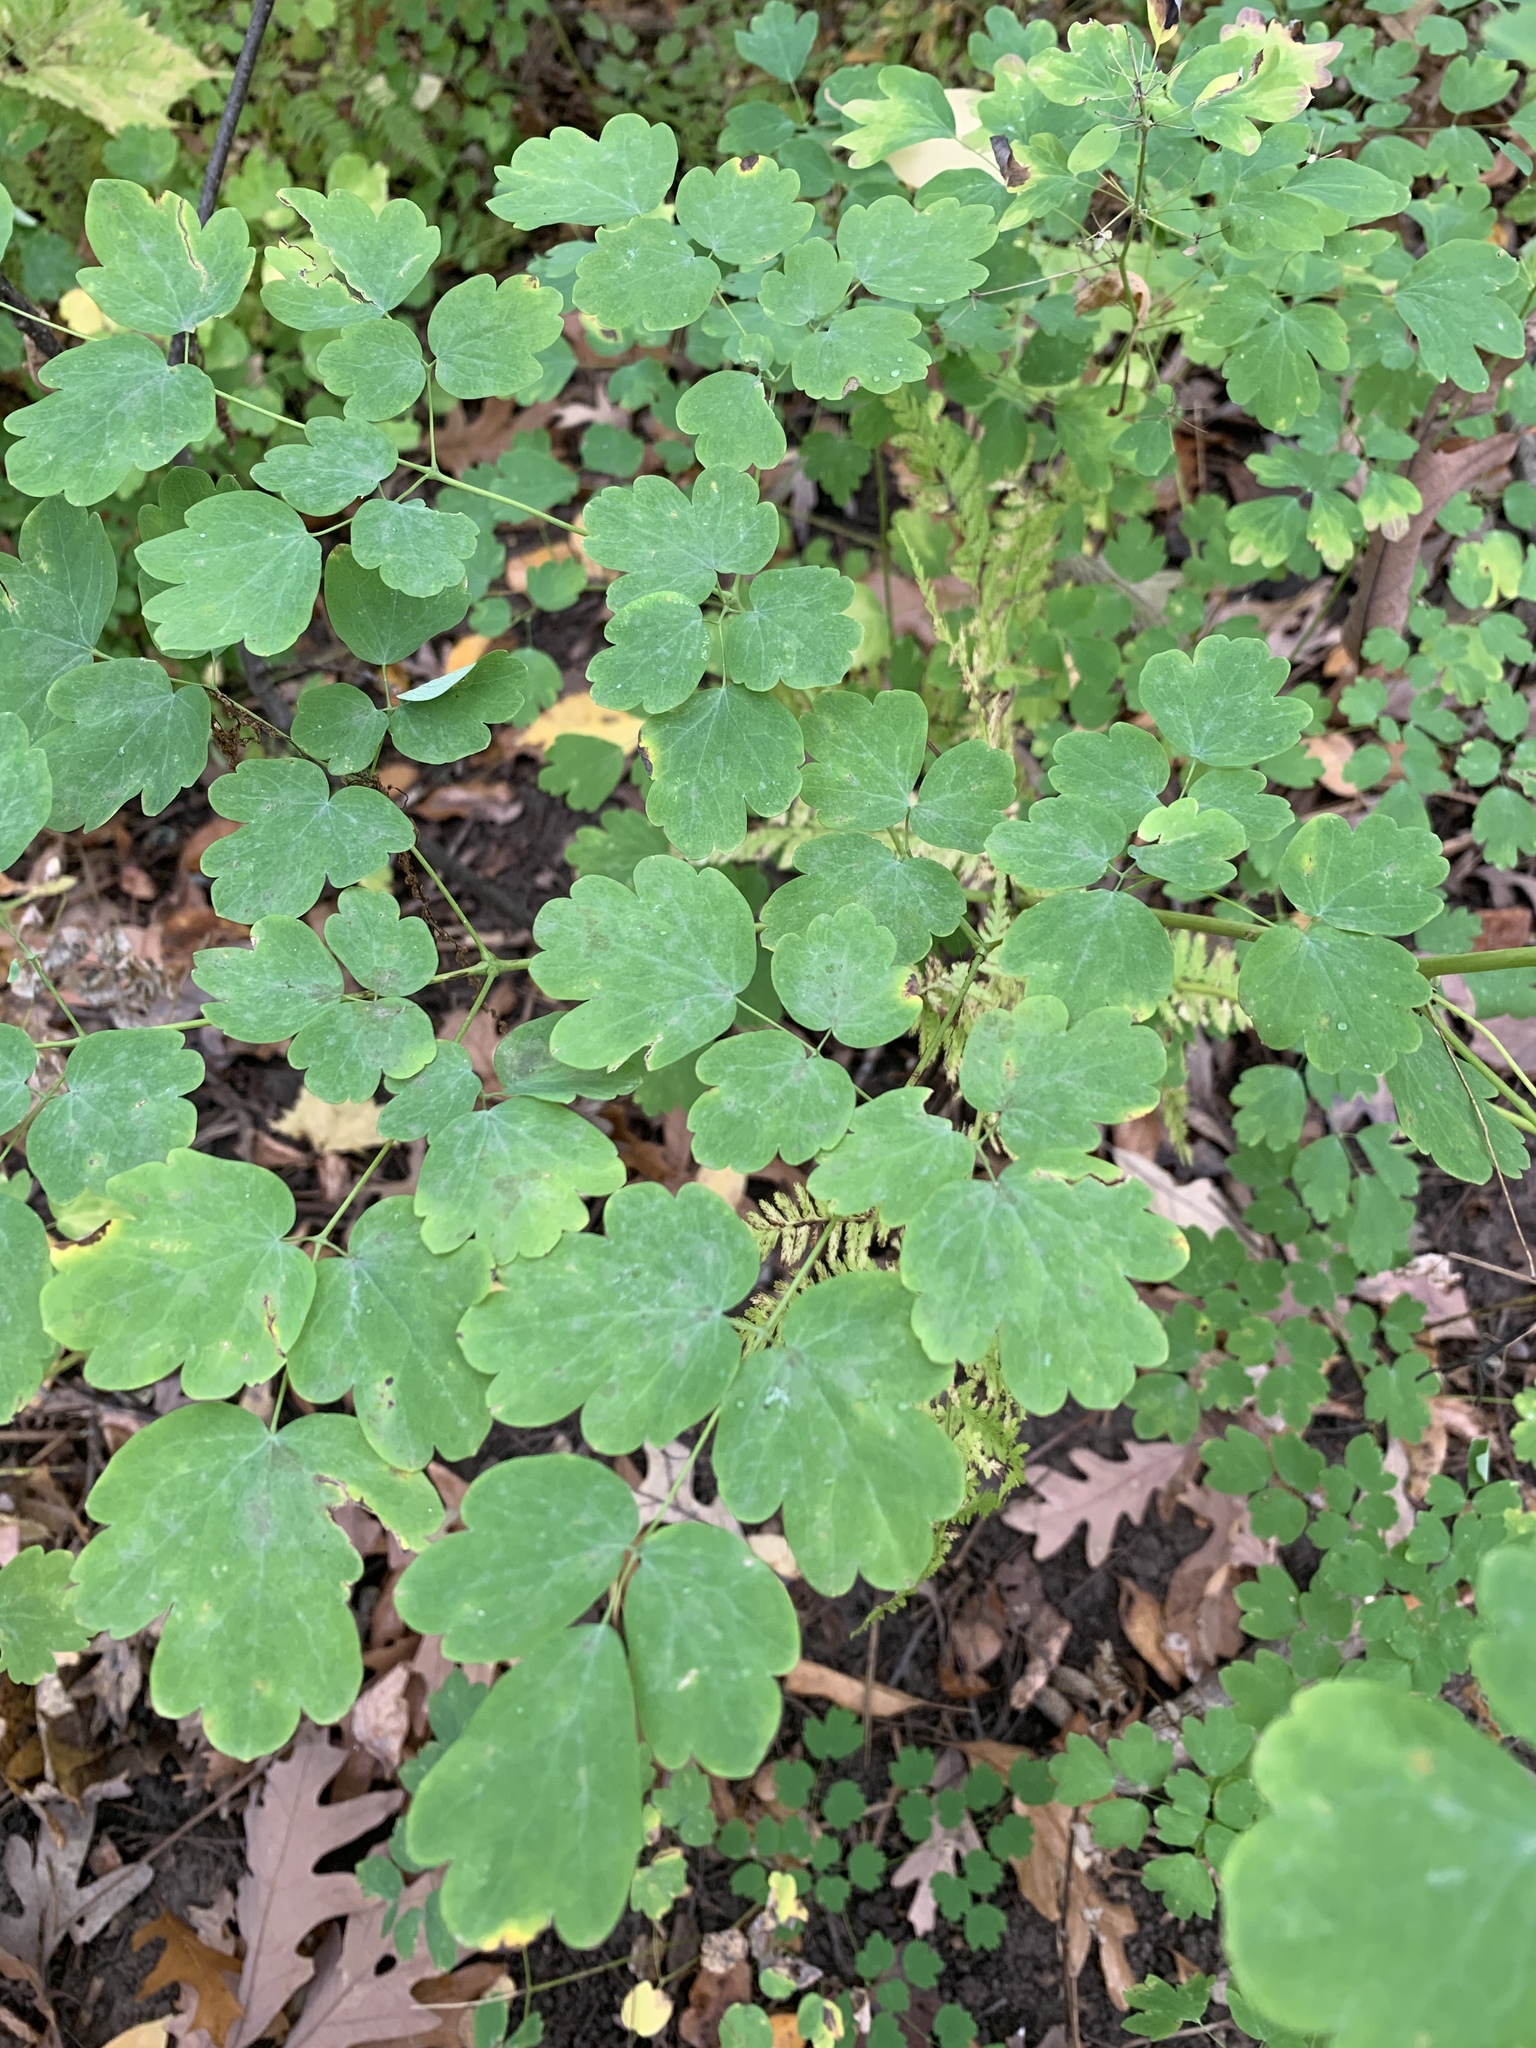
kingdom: Plantae
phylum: Tracheophyta
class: Magnoliopsida
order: Ranunculales
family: Ranunculaceae
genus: Thalictrum
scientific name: Thalictrum dioicum
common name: Early meadow-rue
